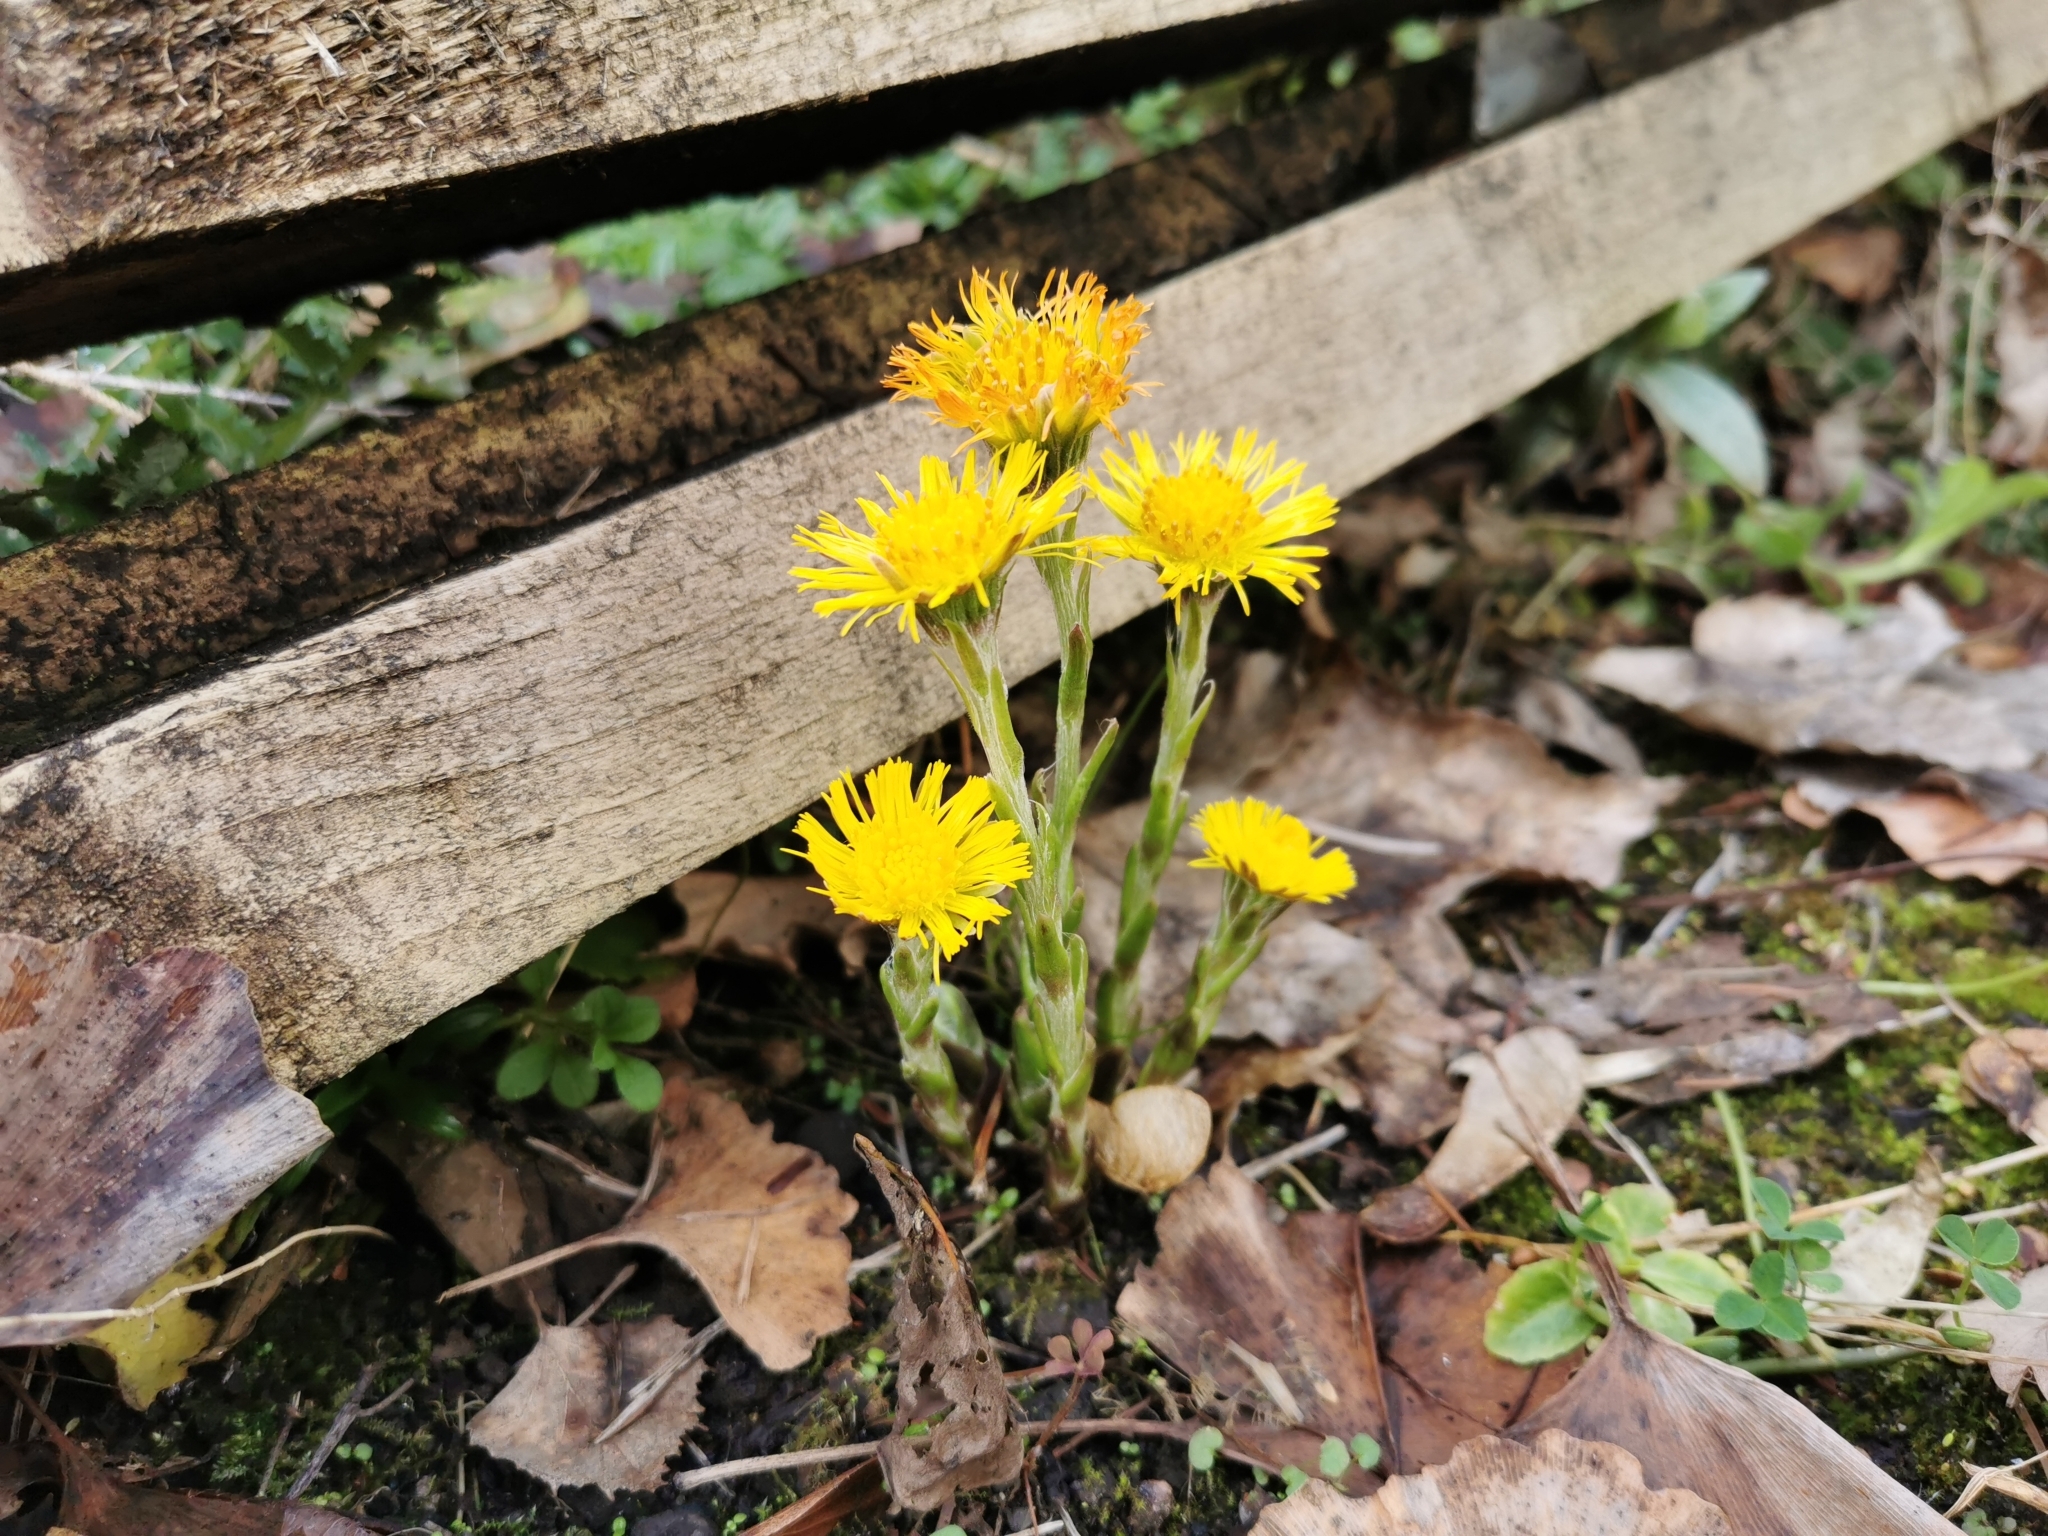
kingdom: Plantae
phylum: Tracheophyta
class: Magnoliopsida
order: Asterales
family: Asteraceae
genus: Tussilago
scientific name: Tussilago farfara
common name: Coltsfoot
